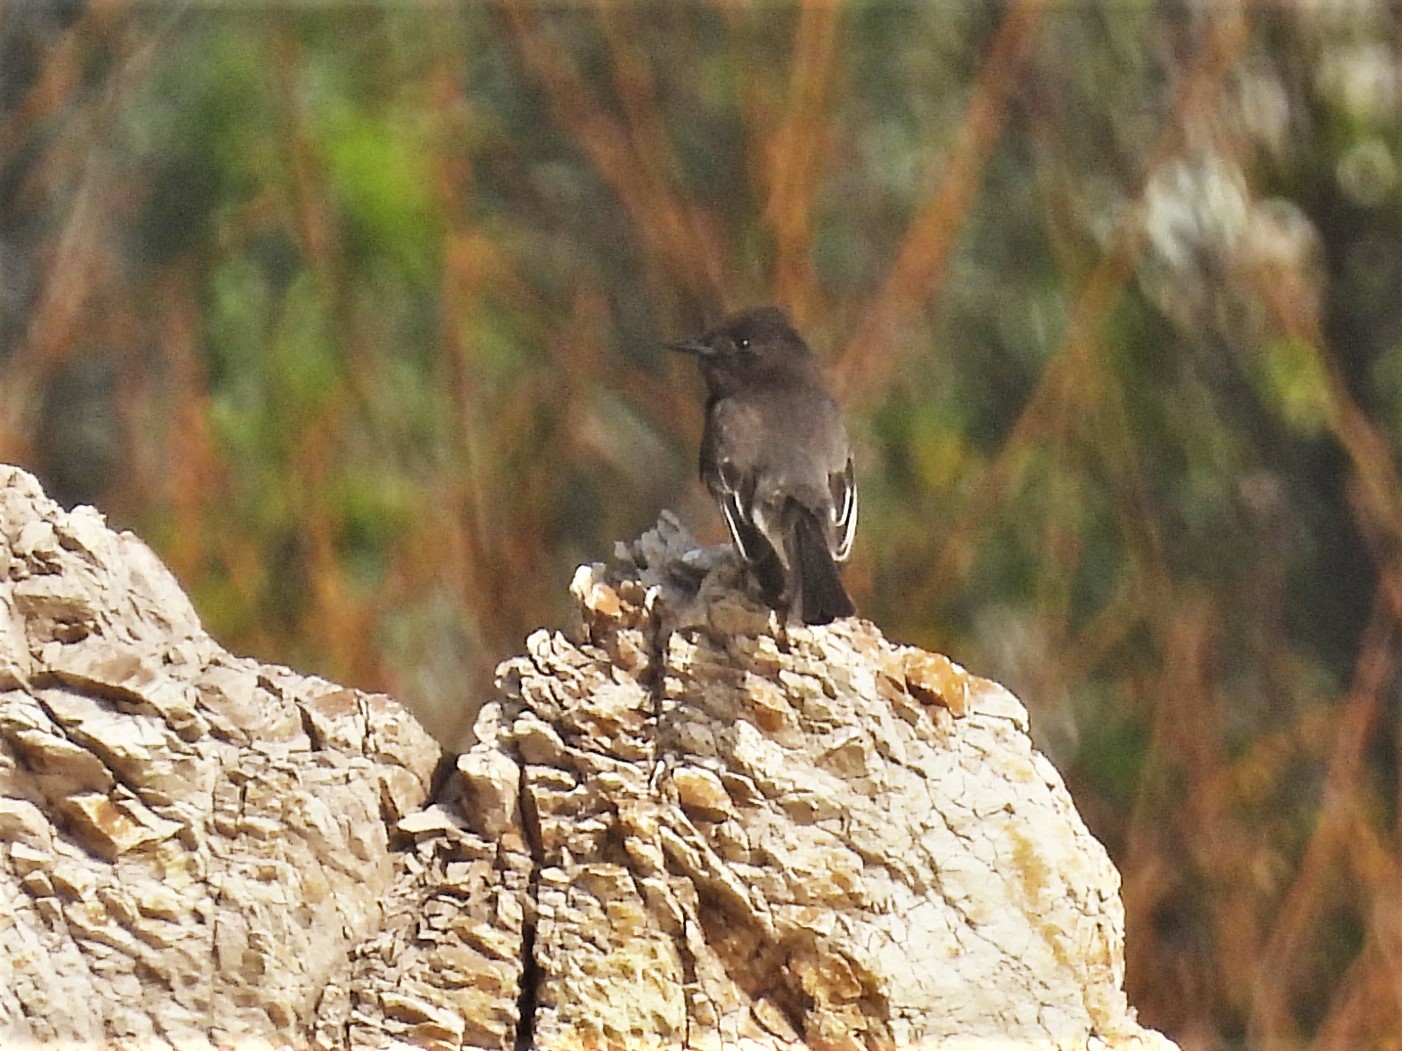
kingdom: Animalia
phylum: Chordata
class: Aves
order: Passeriformes
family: Tyrannidae
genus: Sayornis
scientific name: Sayornis nigricans
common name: Black phoebe
